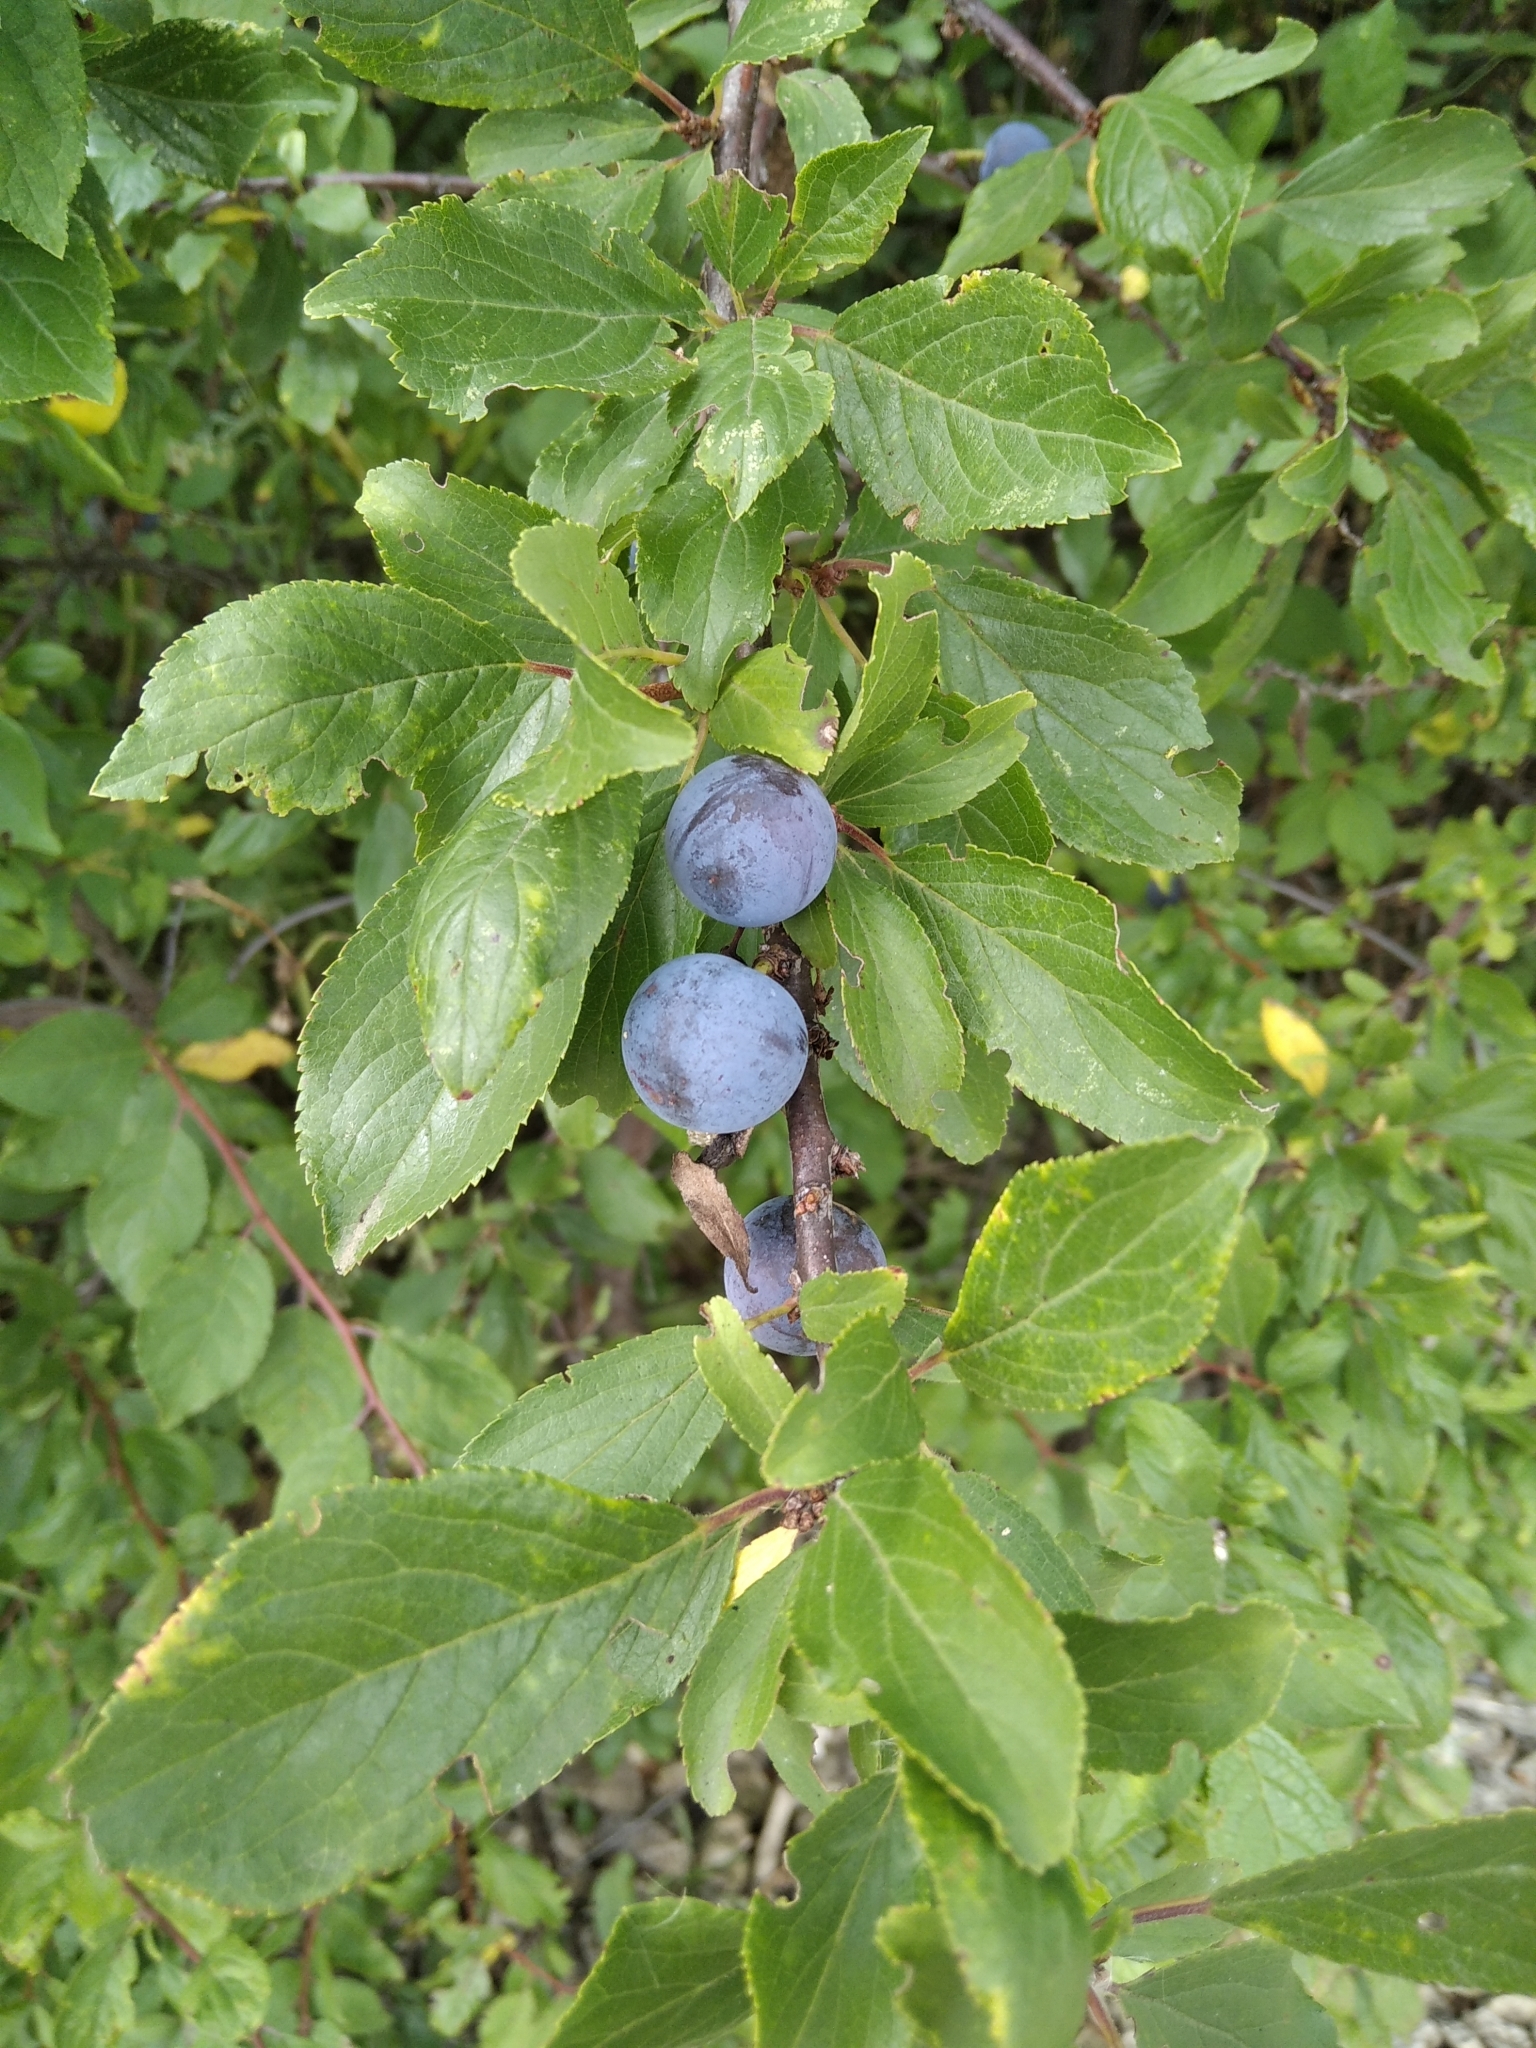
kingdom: Plantae
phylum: Tracheophyta
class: Magnoliopsida
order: Rosales
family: Rosaceae
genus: Prunus
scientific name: Prunus spinosa
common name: Blackthorn
